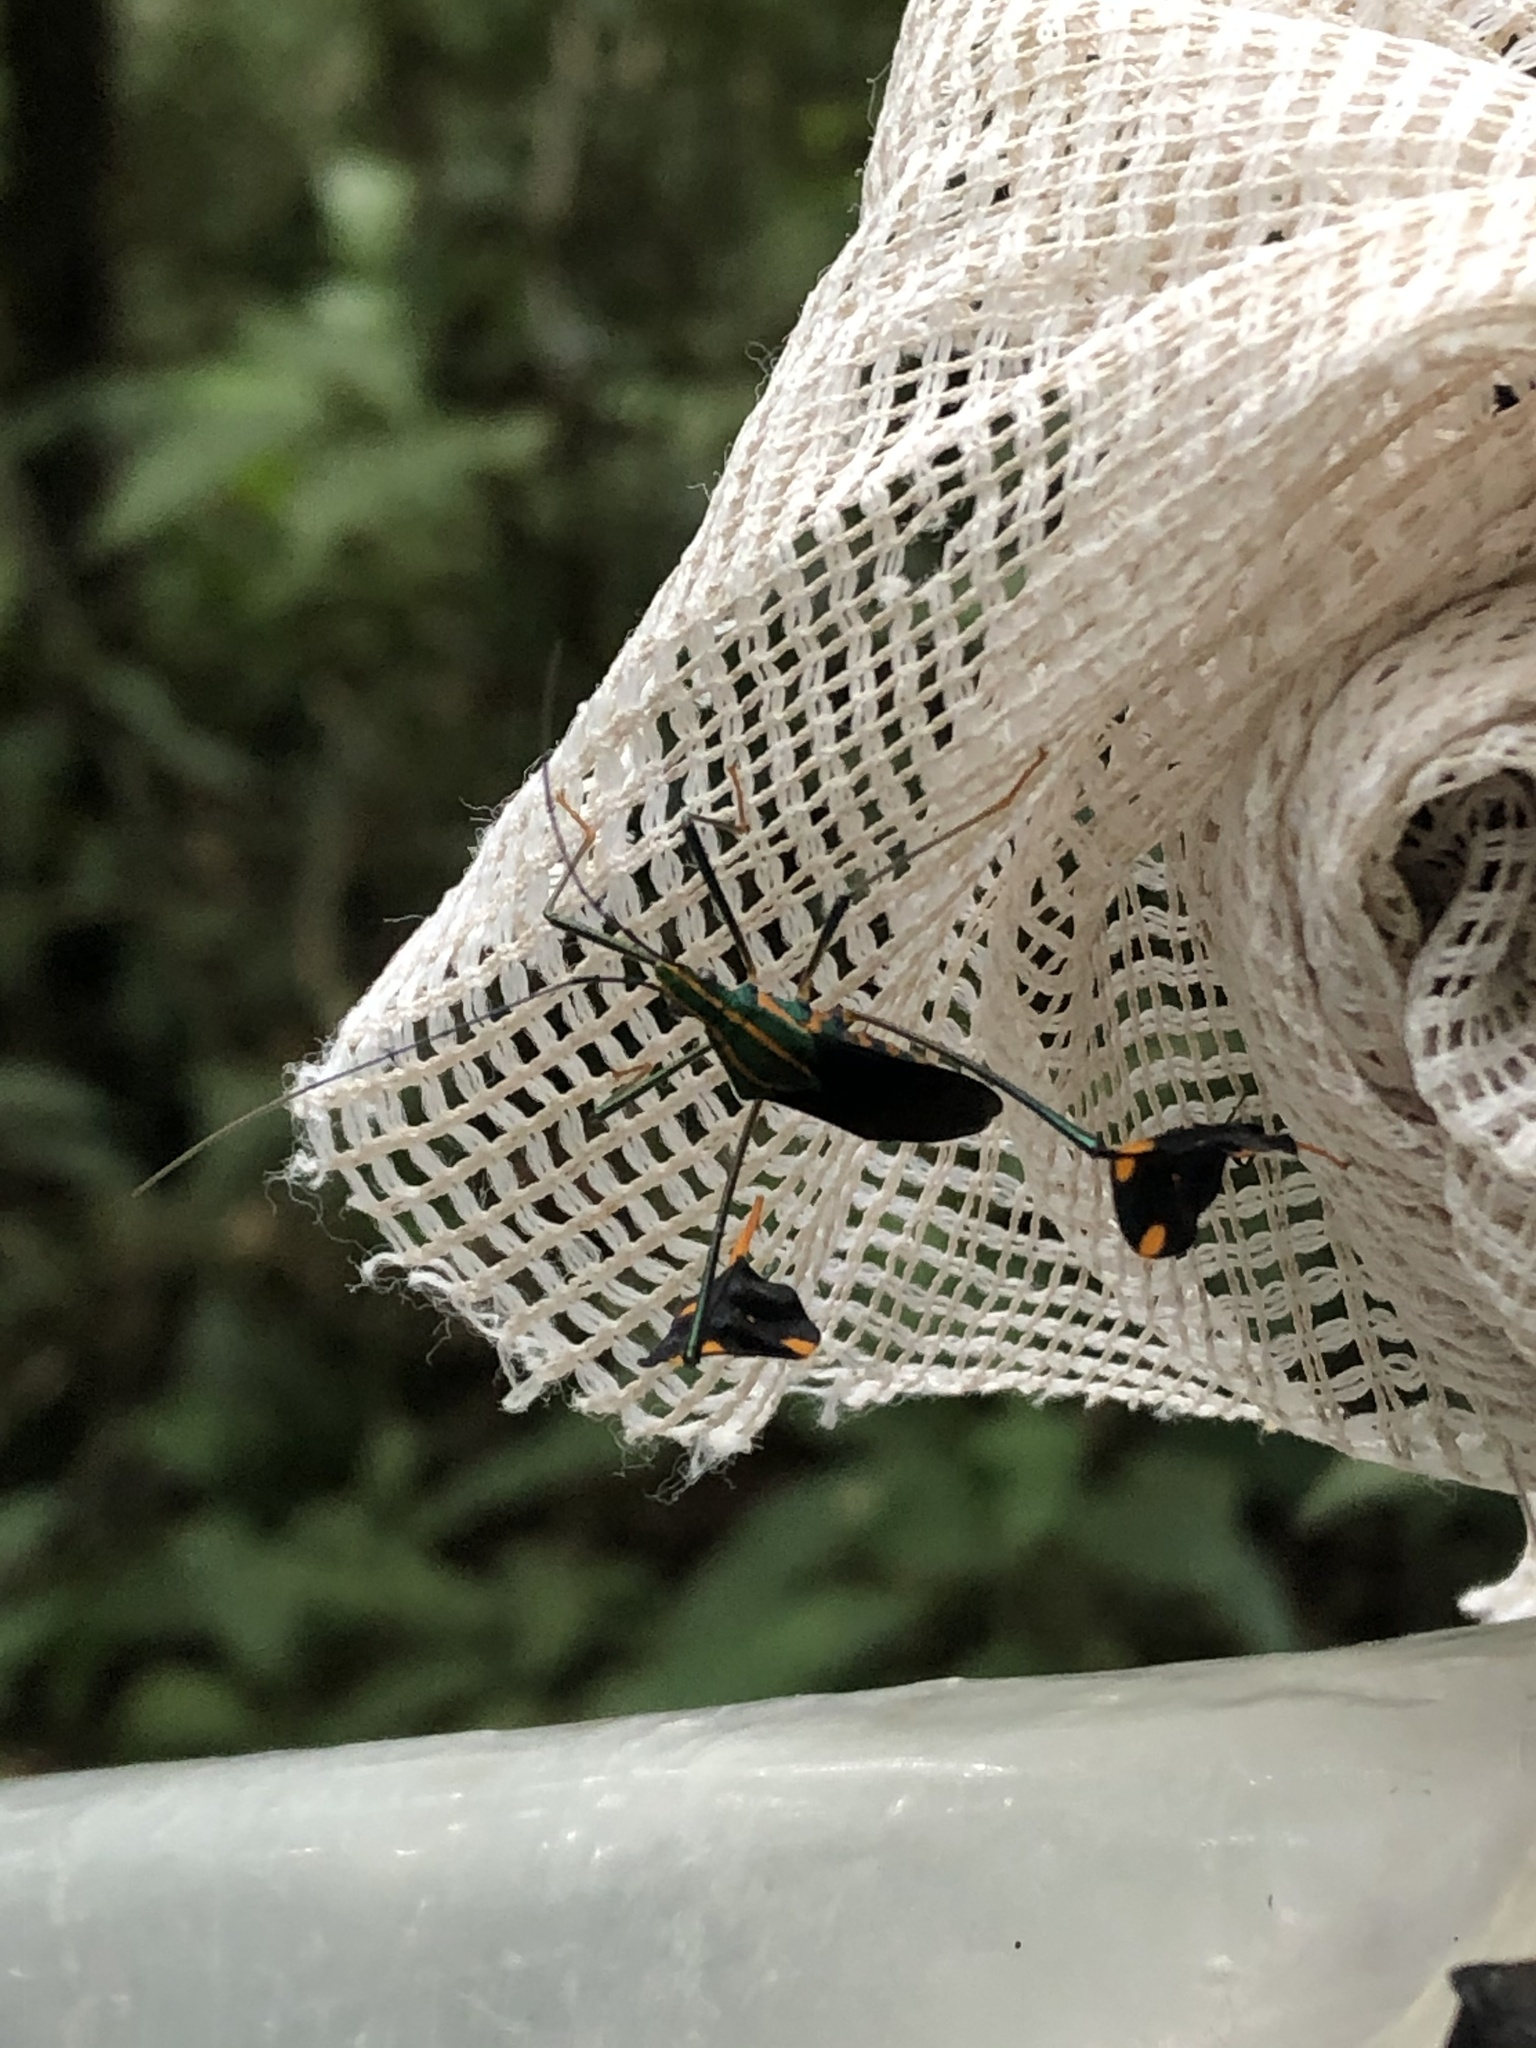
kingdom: Animalia
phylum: Arthropoda
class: Insecta
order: Hemiptera
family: Coreidae
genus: Diactor
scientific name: Diactor bilineatus
